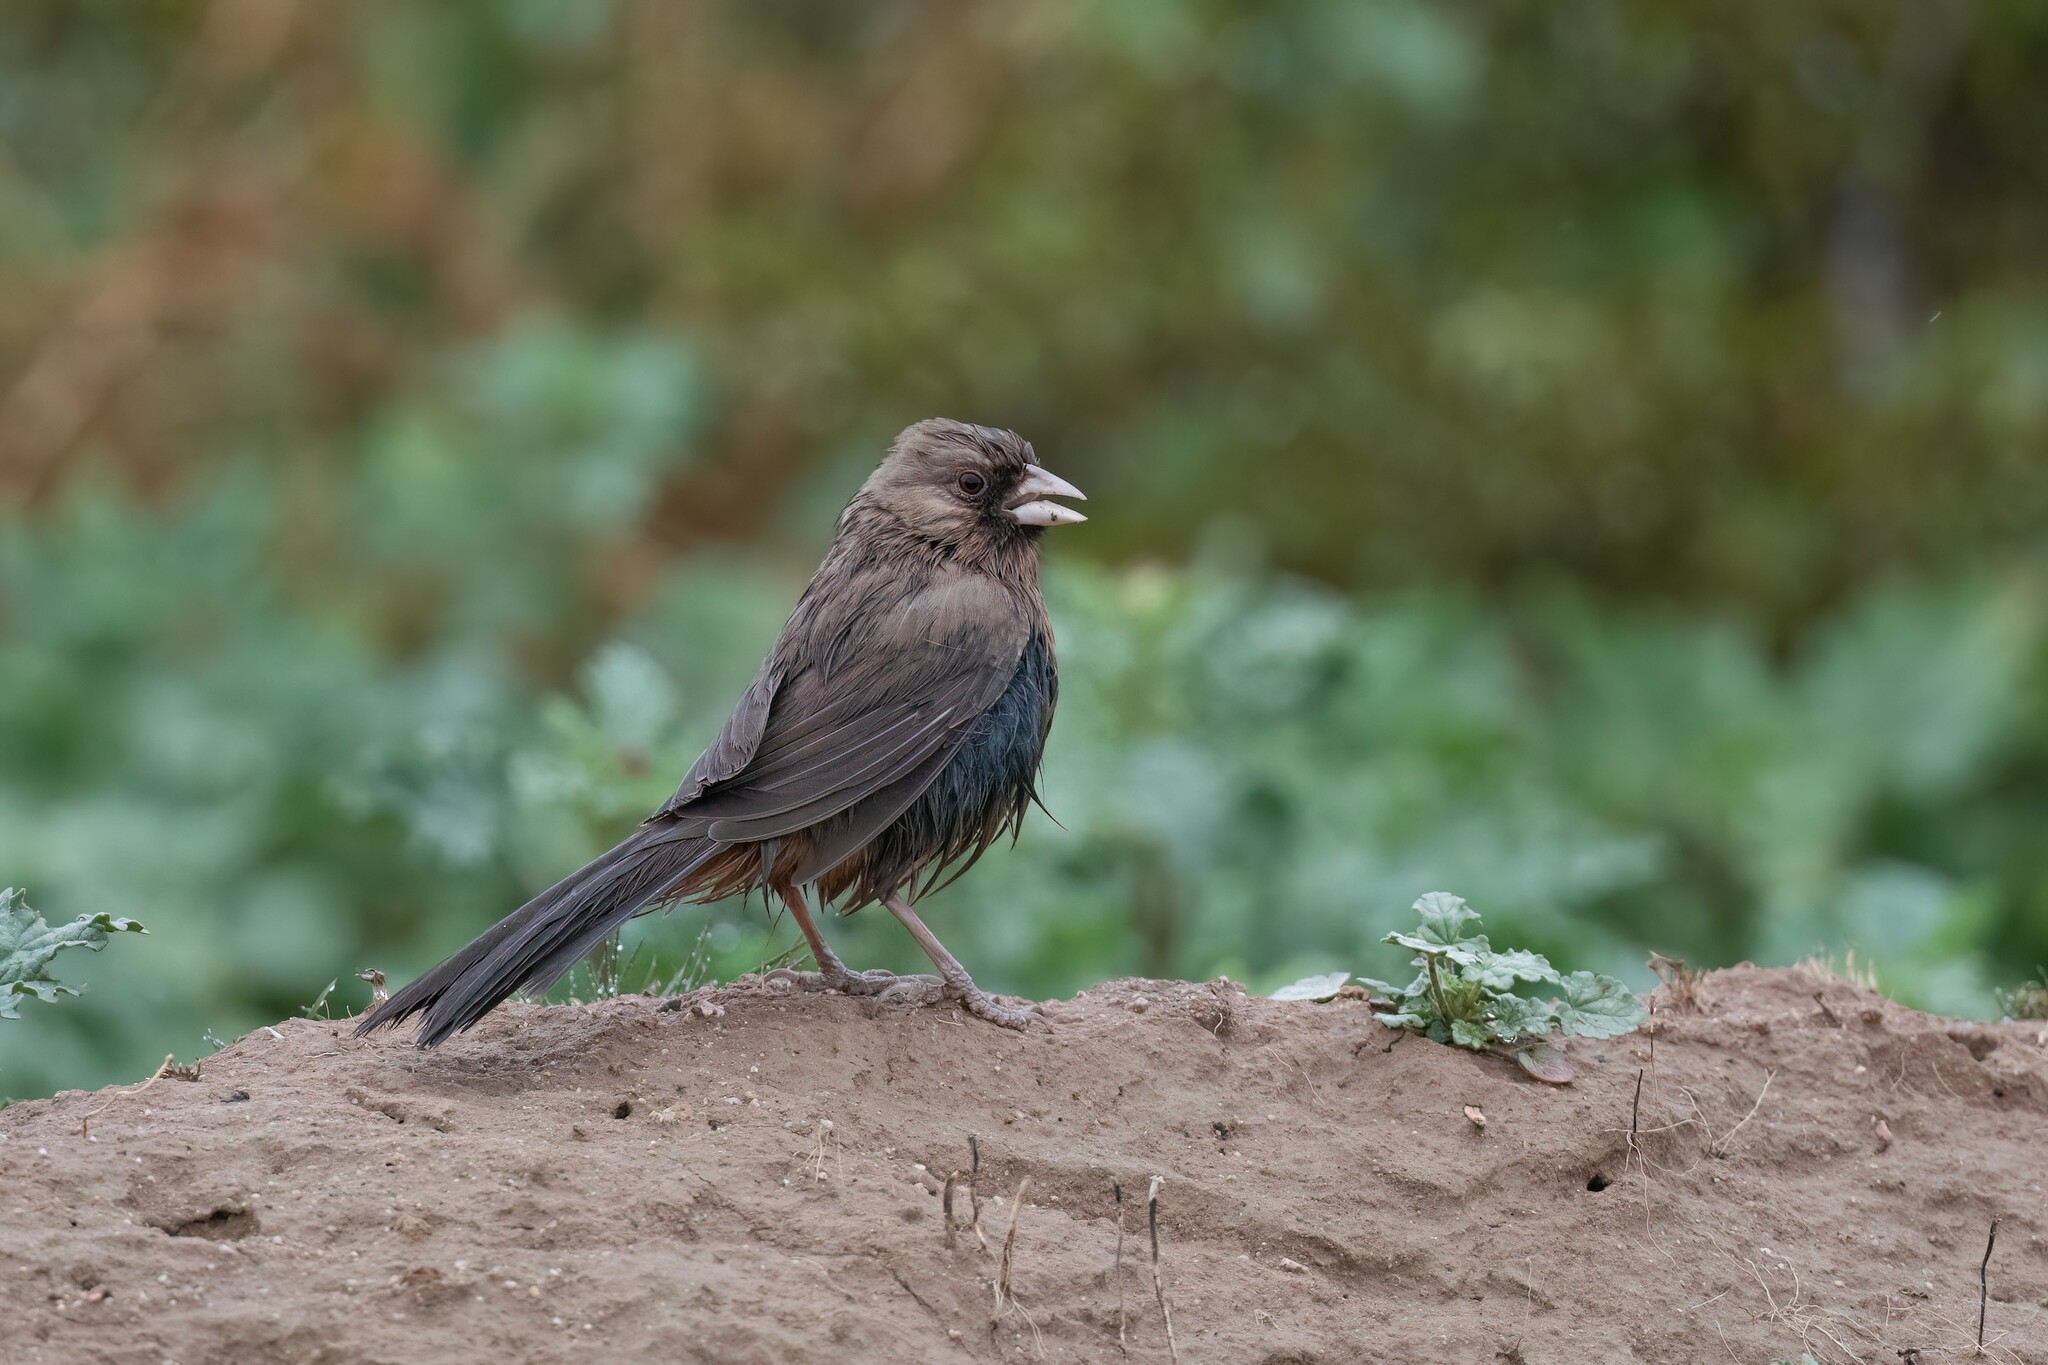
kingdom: Animalia
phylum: Chordata
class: Aves
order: Passeriformes
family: Passerellidae
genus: Melozone
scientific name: Melozone aberti
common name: Abert's towhee
